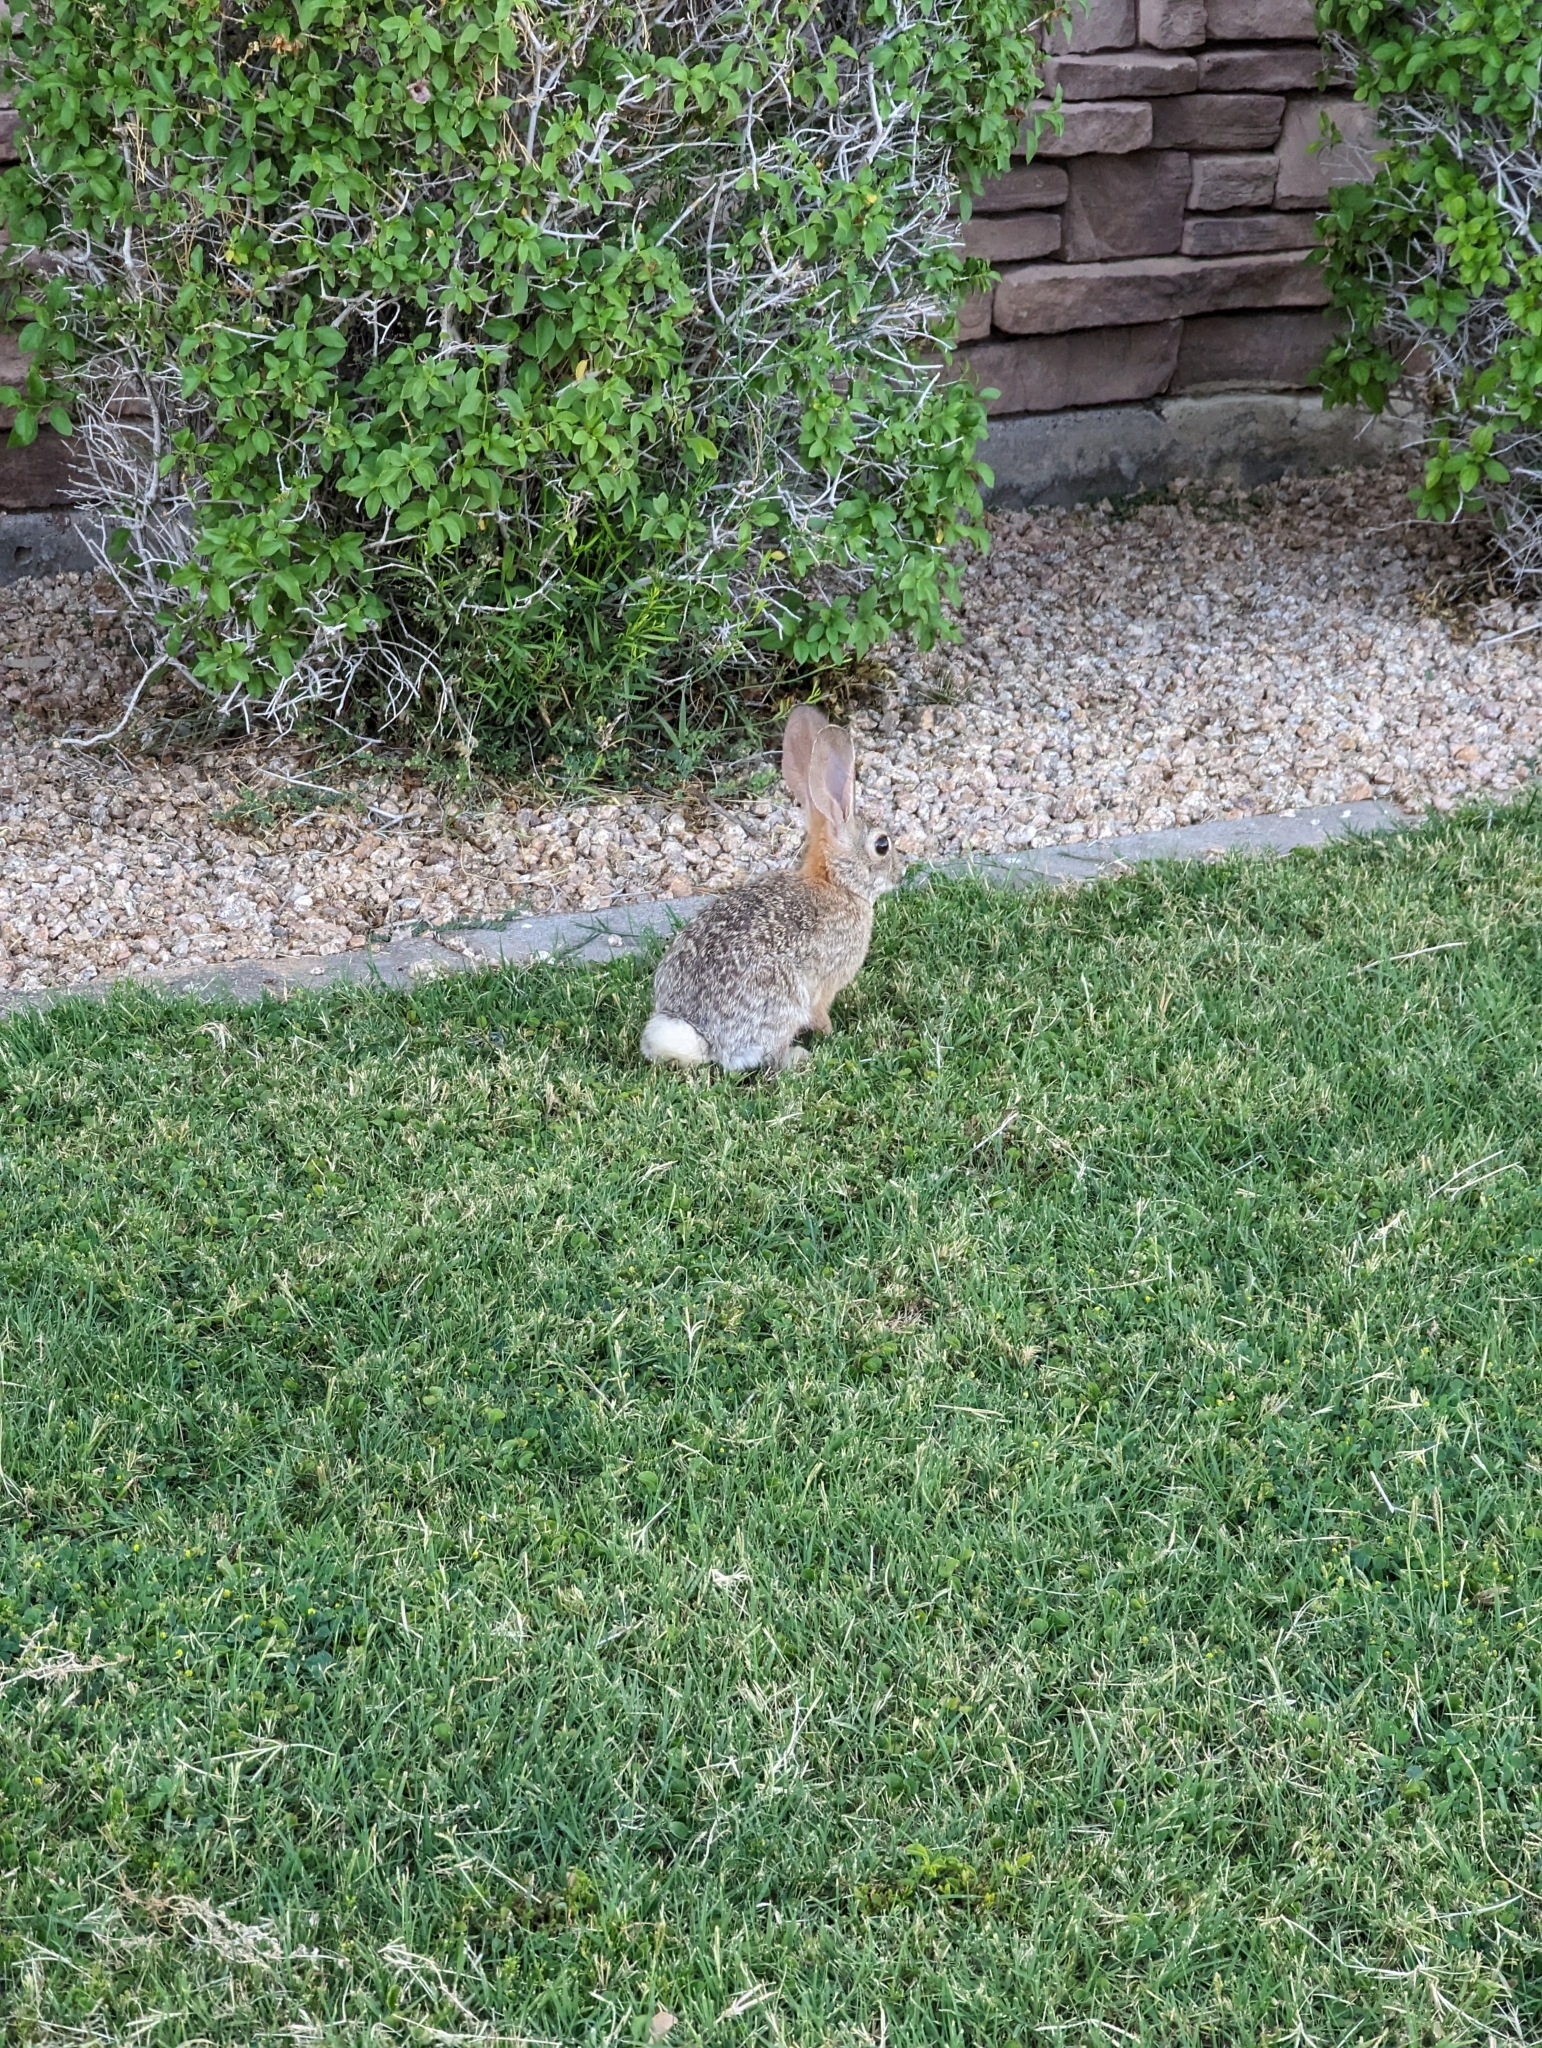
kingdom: Animalia
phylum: Chordata
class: Mammalia
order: Lagomorpha
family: Leporidae
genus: Sylvilagus
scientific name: Sylvilagus audubonii
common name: Desert cottontail
